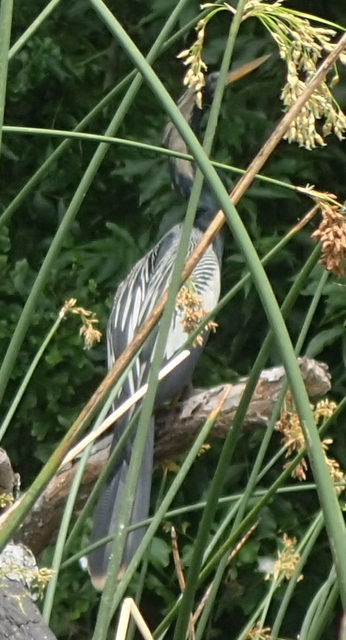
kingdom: Animalia
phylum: Chordata
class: Aves
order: Suliformes
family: Anhingidae
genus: Anhinga
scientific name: Anhinga anhinga
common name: Anhinga
